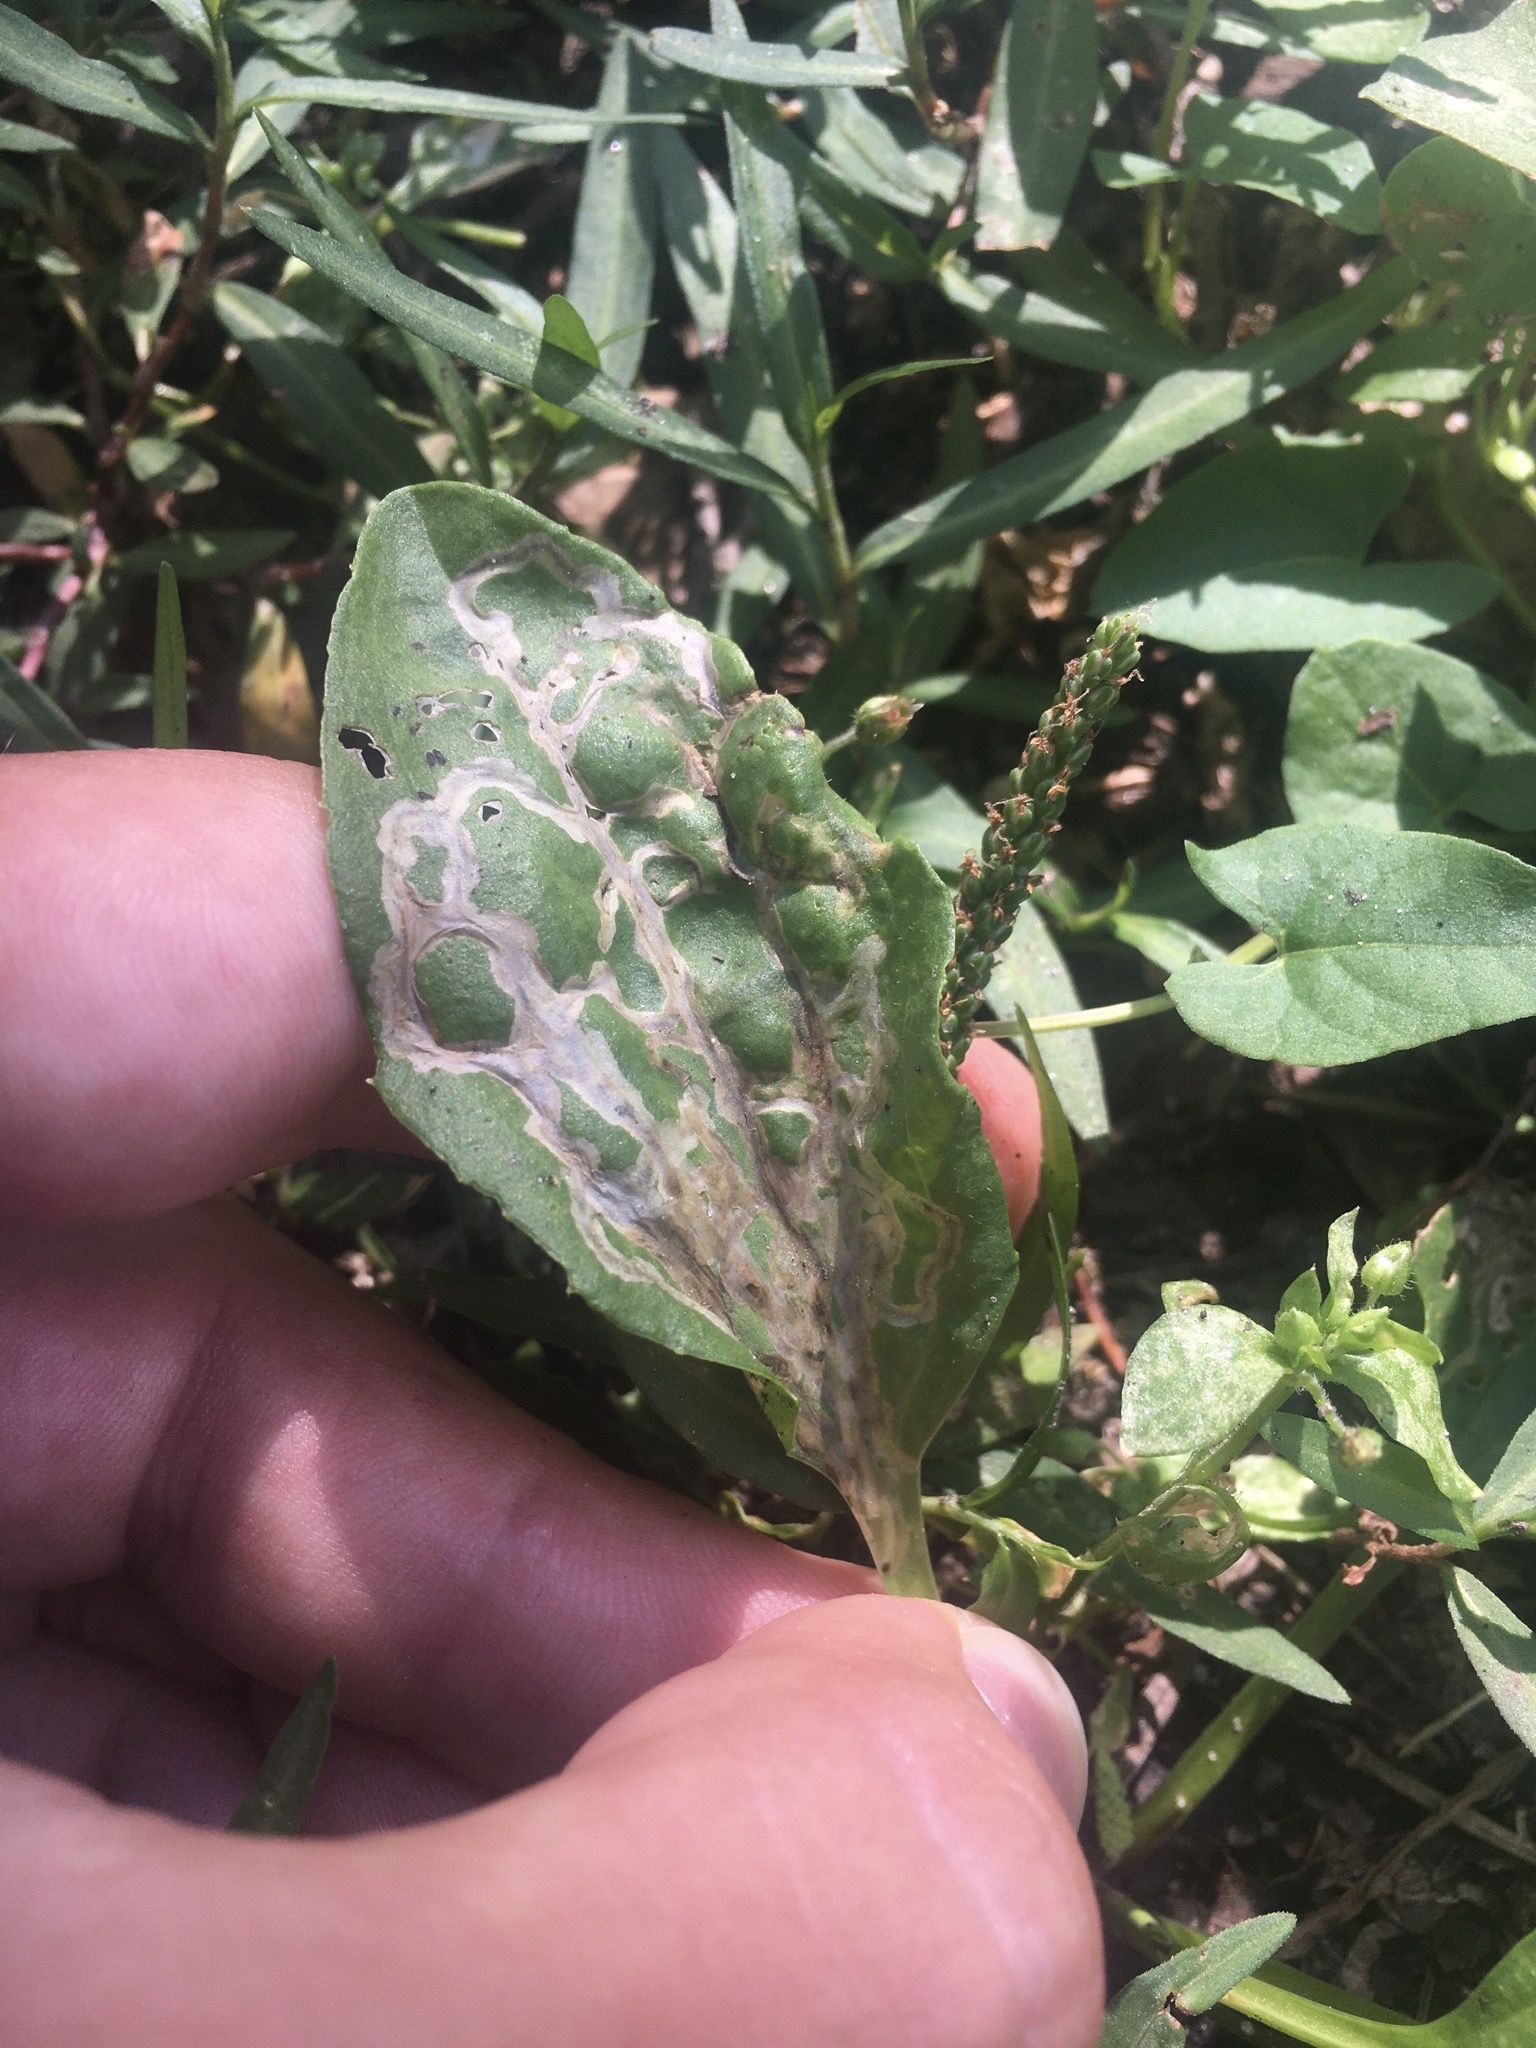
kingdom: Animalia
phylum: Arthropoda
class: Insecta
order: Coleoptera
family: Chrysomelidae
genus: Dibolia
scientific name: Dibolia borealis
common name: Northern plantain flea beetle
